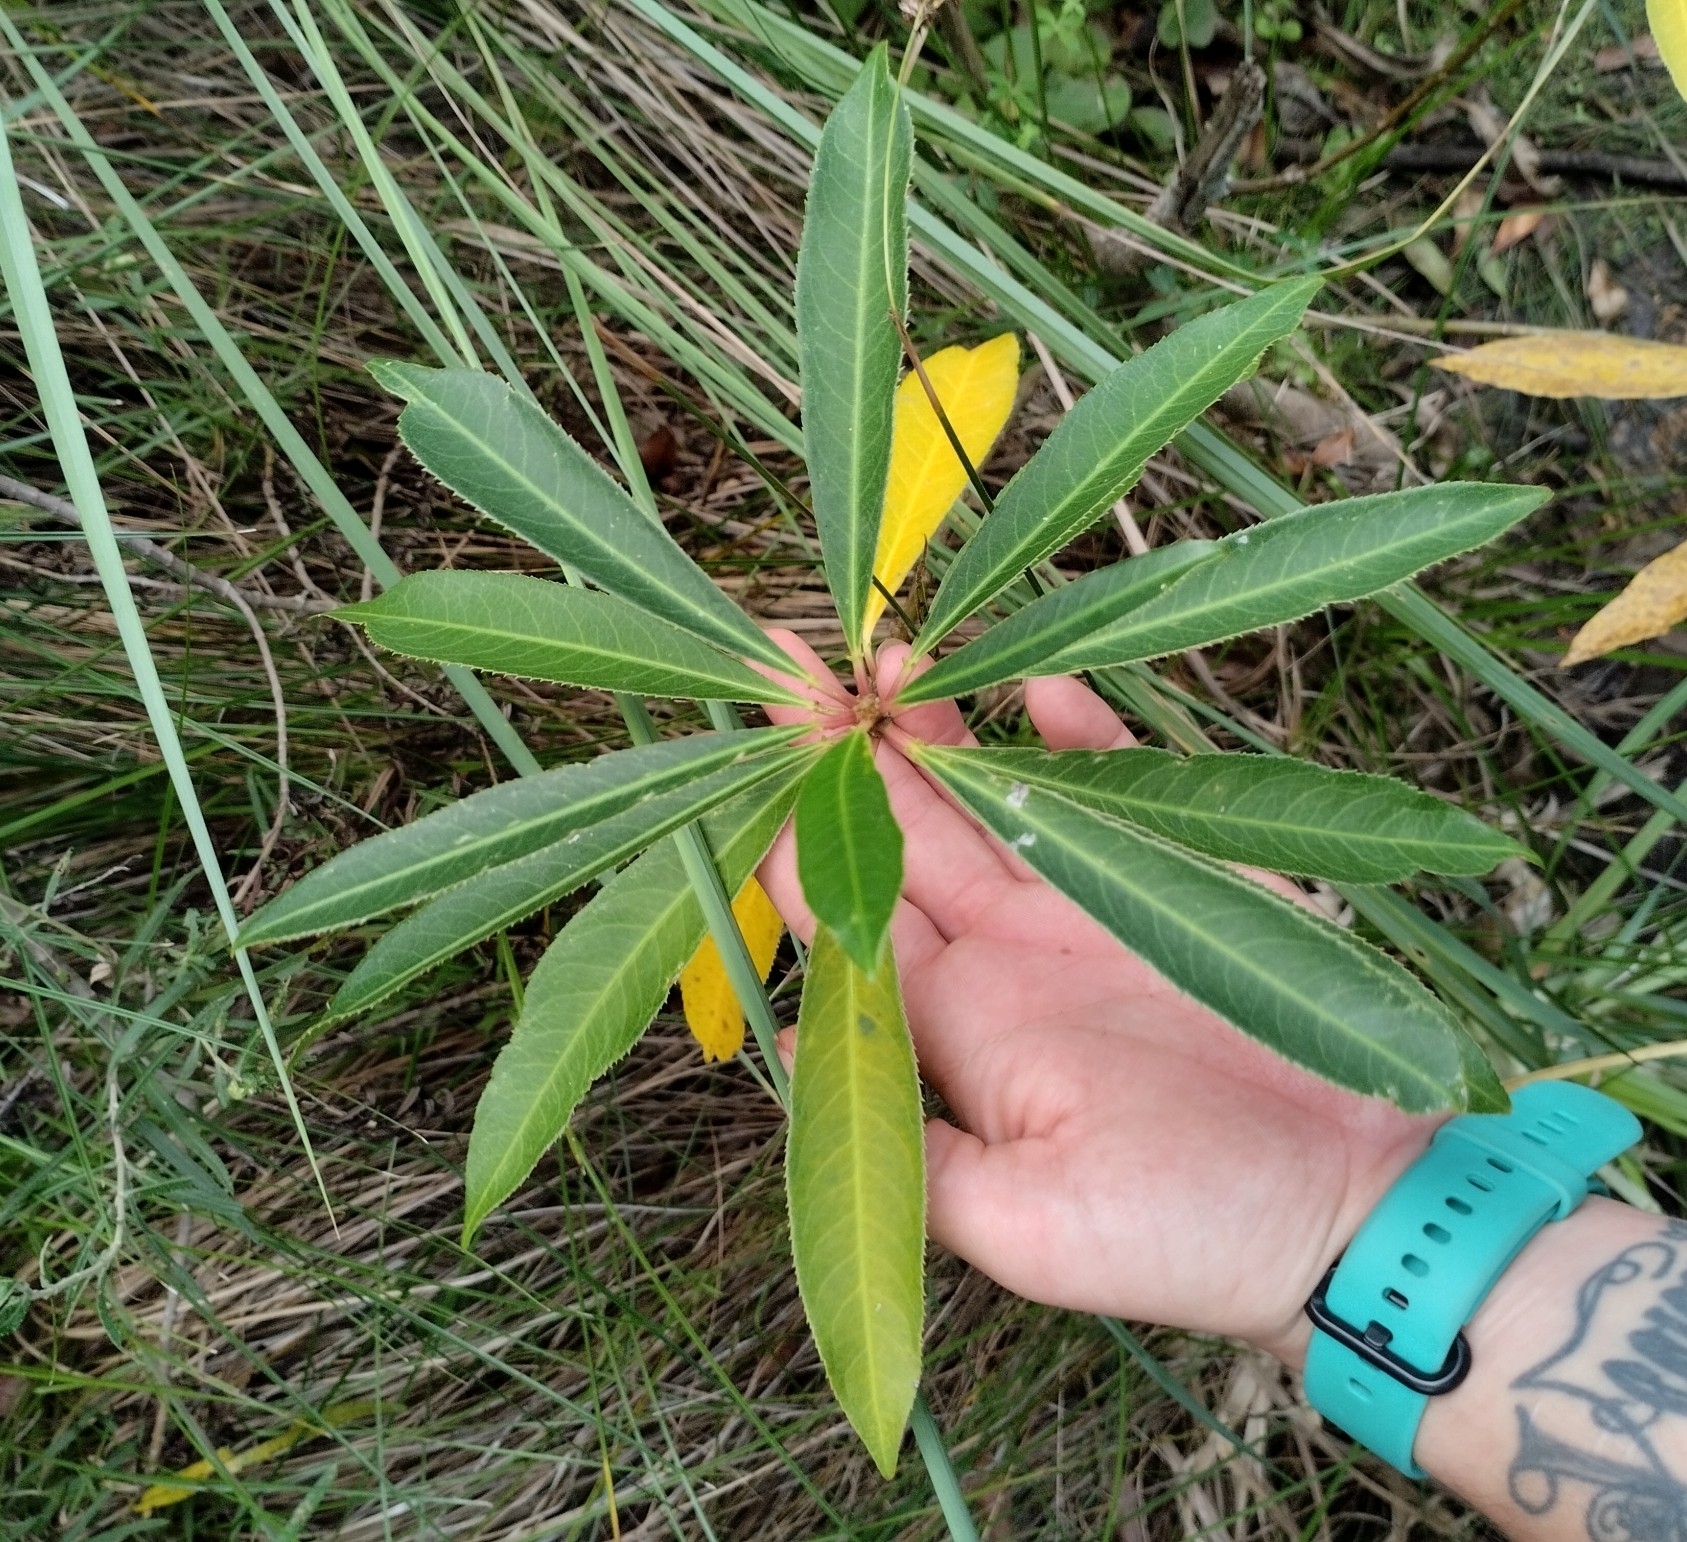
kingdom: Plantae
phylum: Tracheophyta
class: Magnoliopsida
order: Malpighiales
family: Euphorbiaceae
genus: Sapium
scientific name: Sapium glandulosum
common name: Milktree
